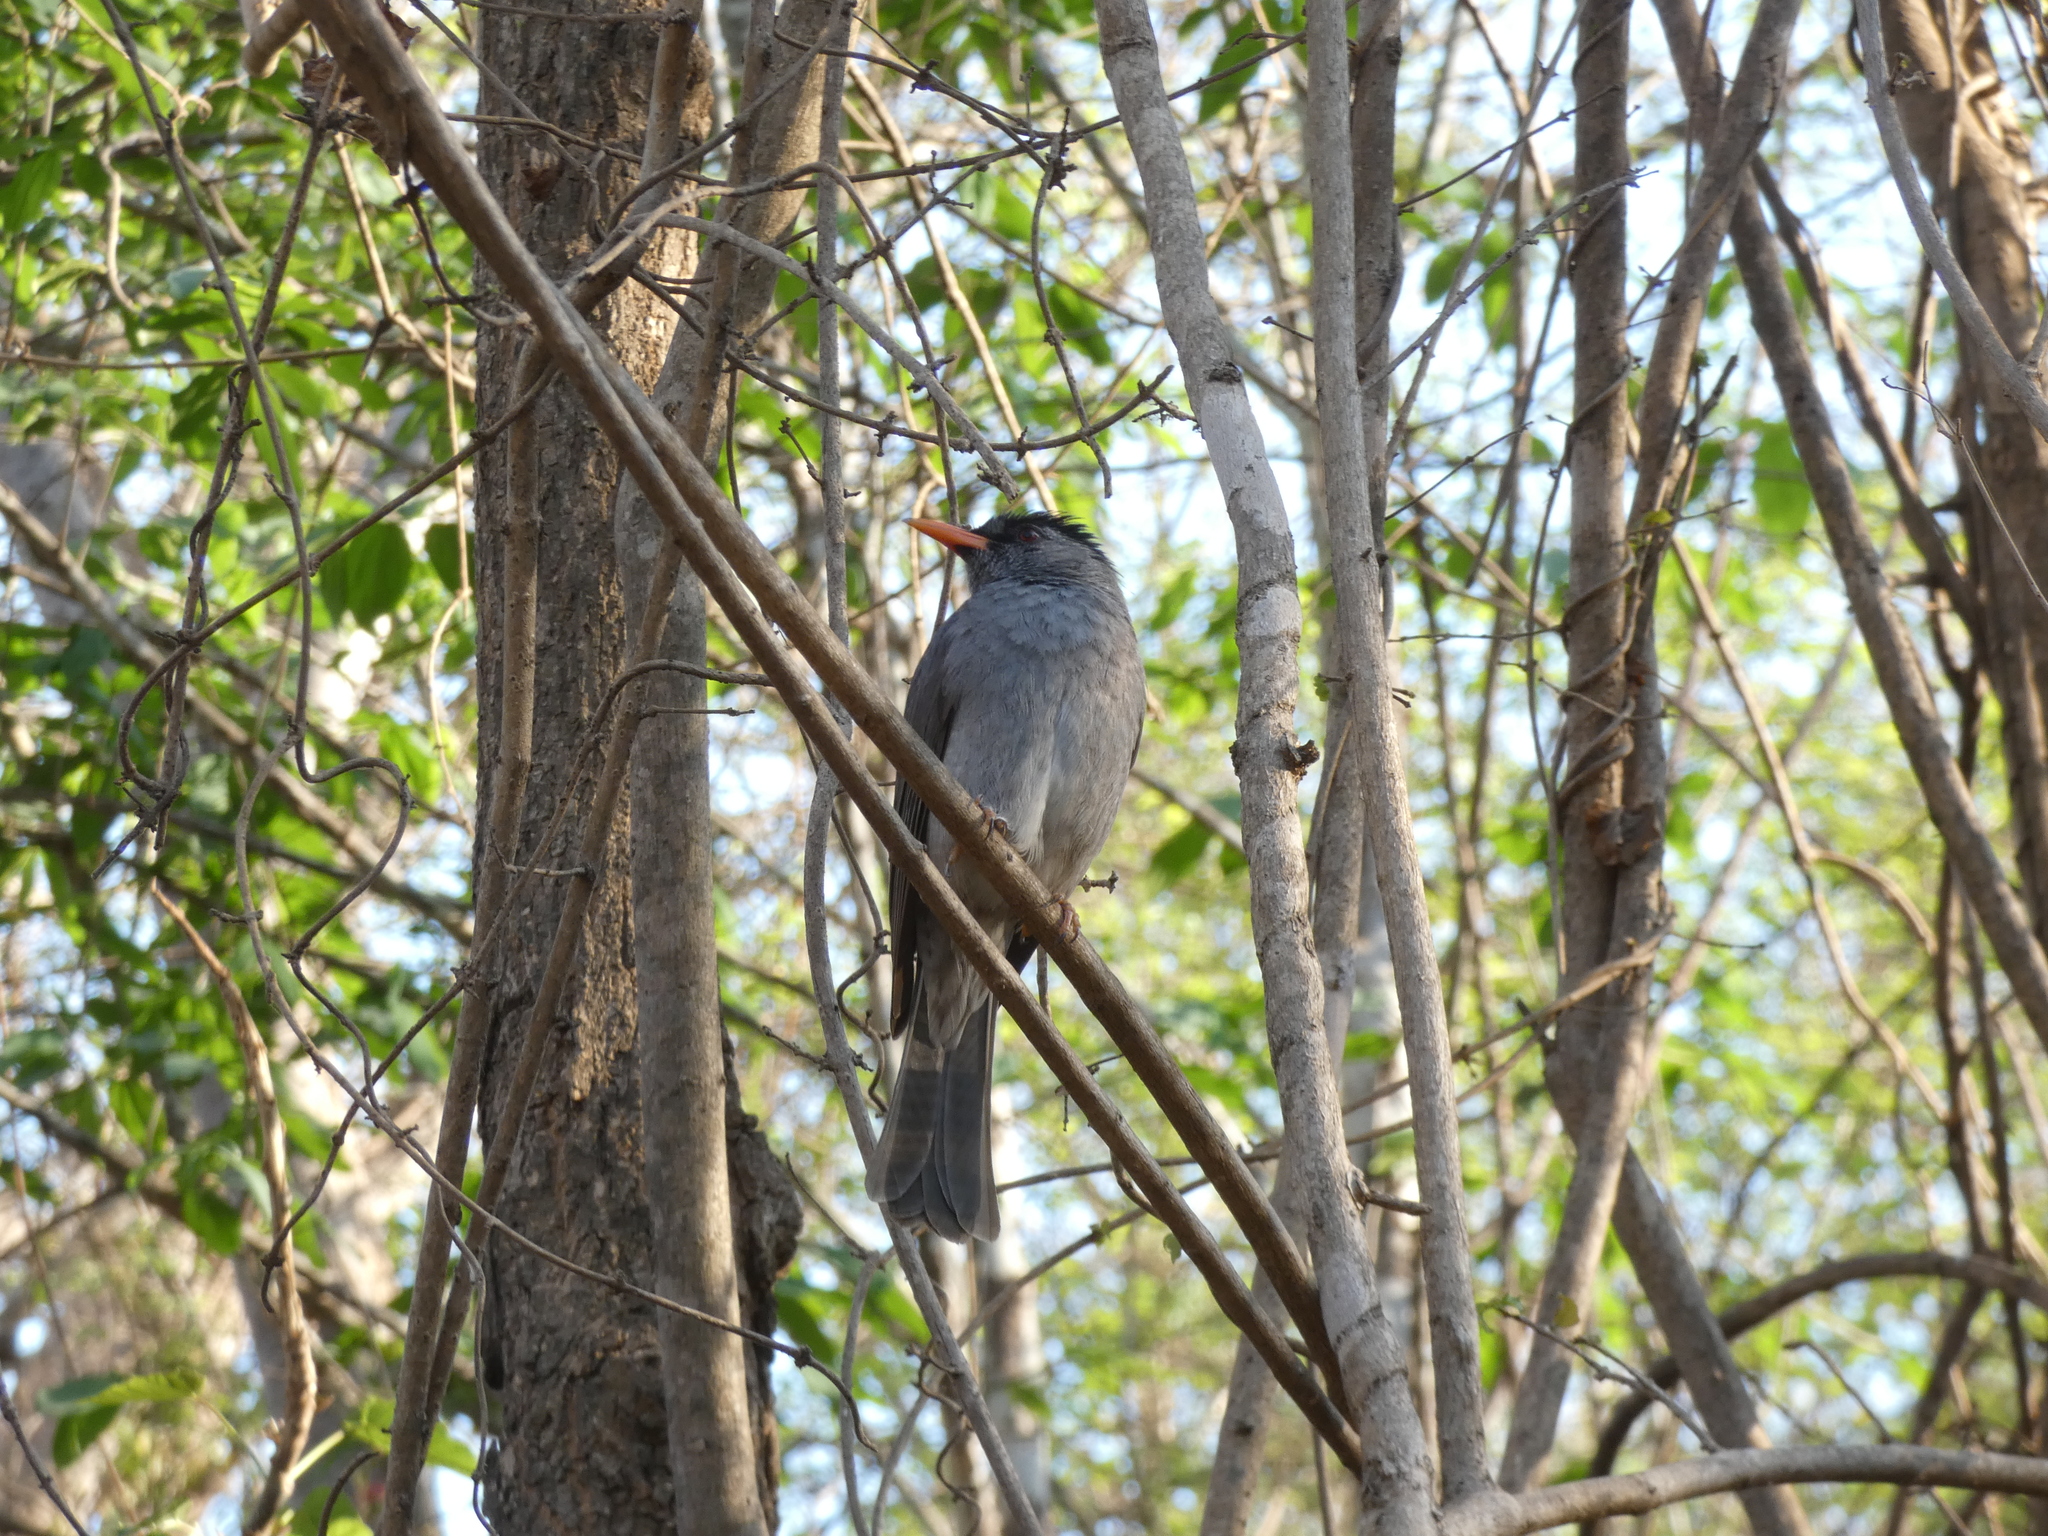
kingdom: Animalia
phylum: Chordata
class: Aves
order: Passeriformes
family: Pycnonotidae
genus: Hypsipetes
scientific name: Hypsipetes madagascariensis
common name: Malagasy bulbul
